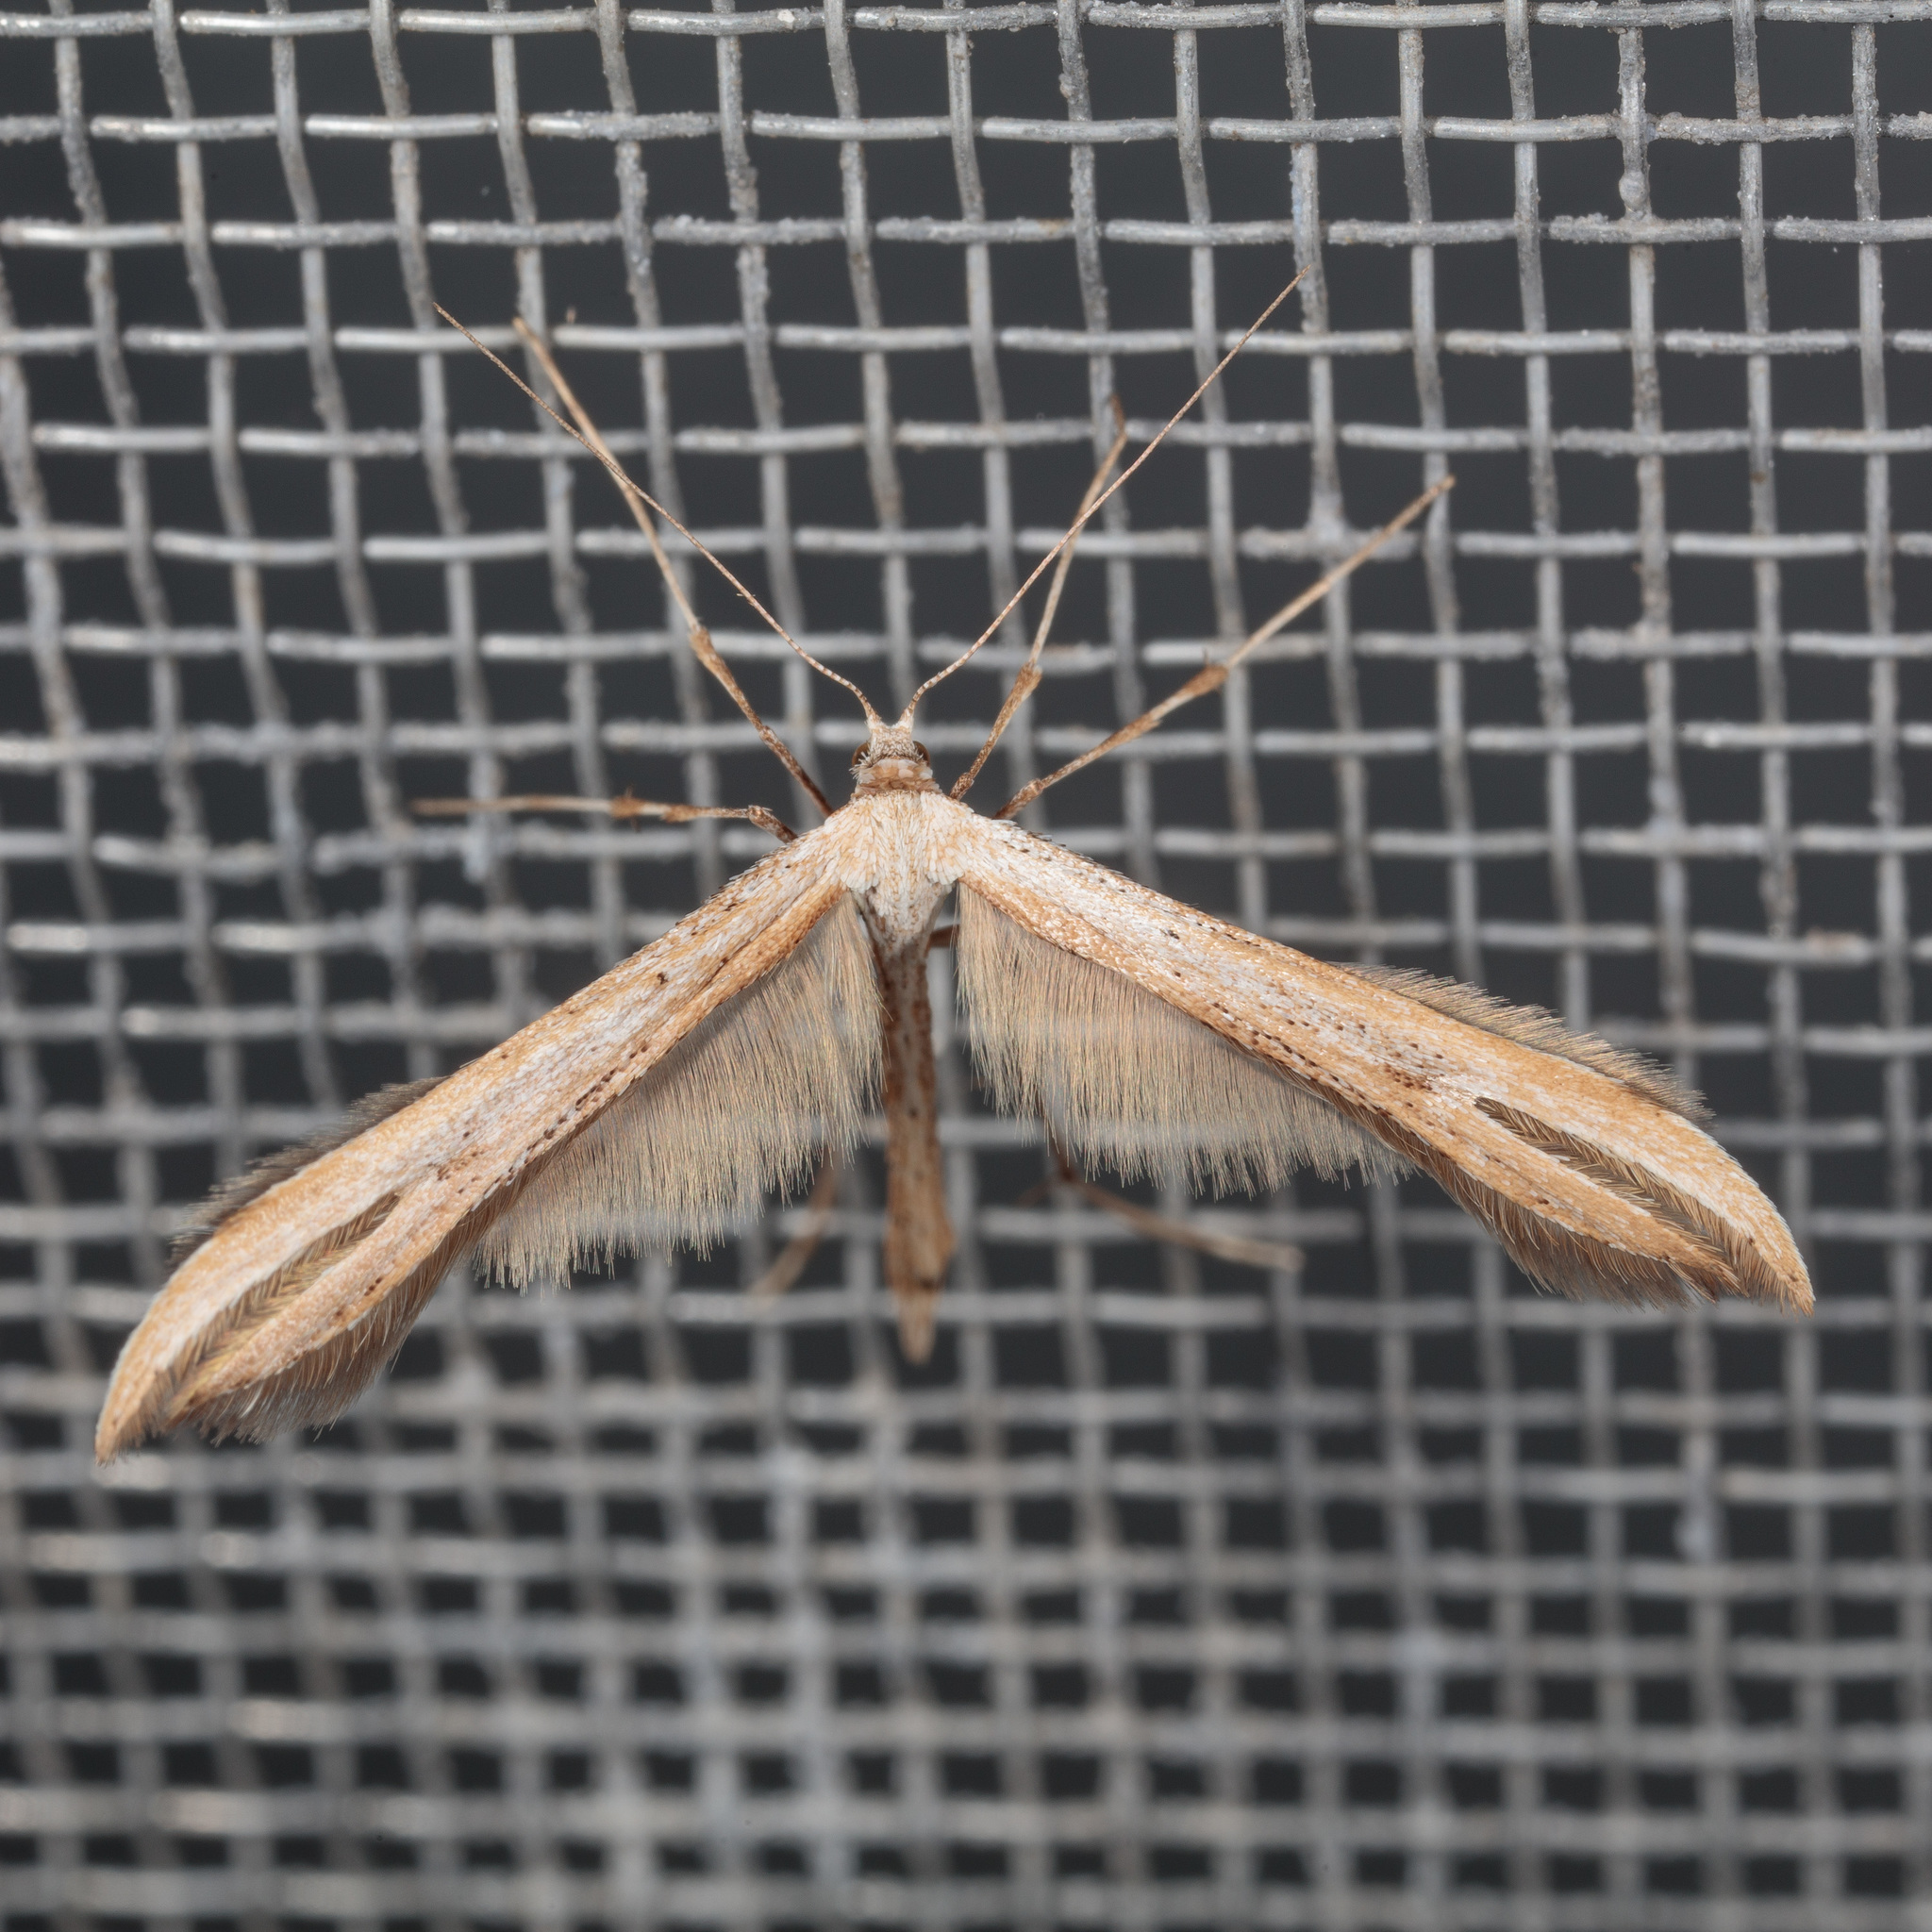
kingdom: Animalia
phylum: Arthropoda
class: Insecta
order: Lepidoptera
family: Pterophoridae
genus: Emmelina
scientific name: Emmelina monodactyla
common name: Common plume
